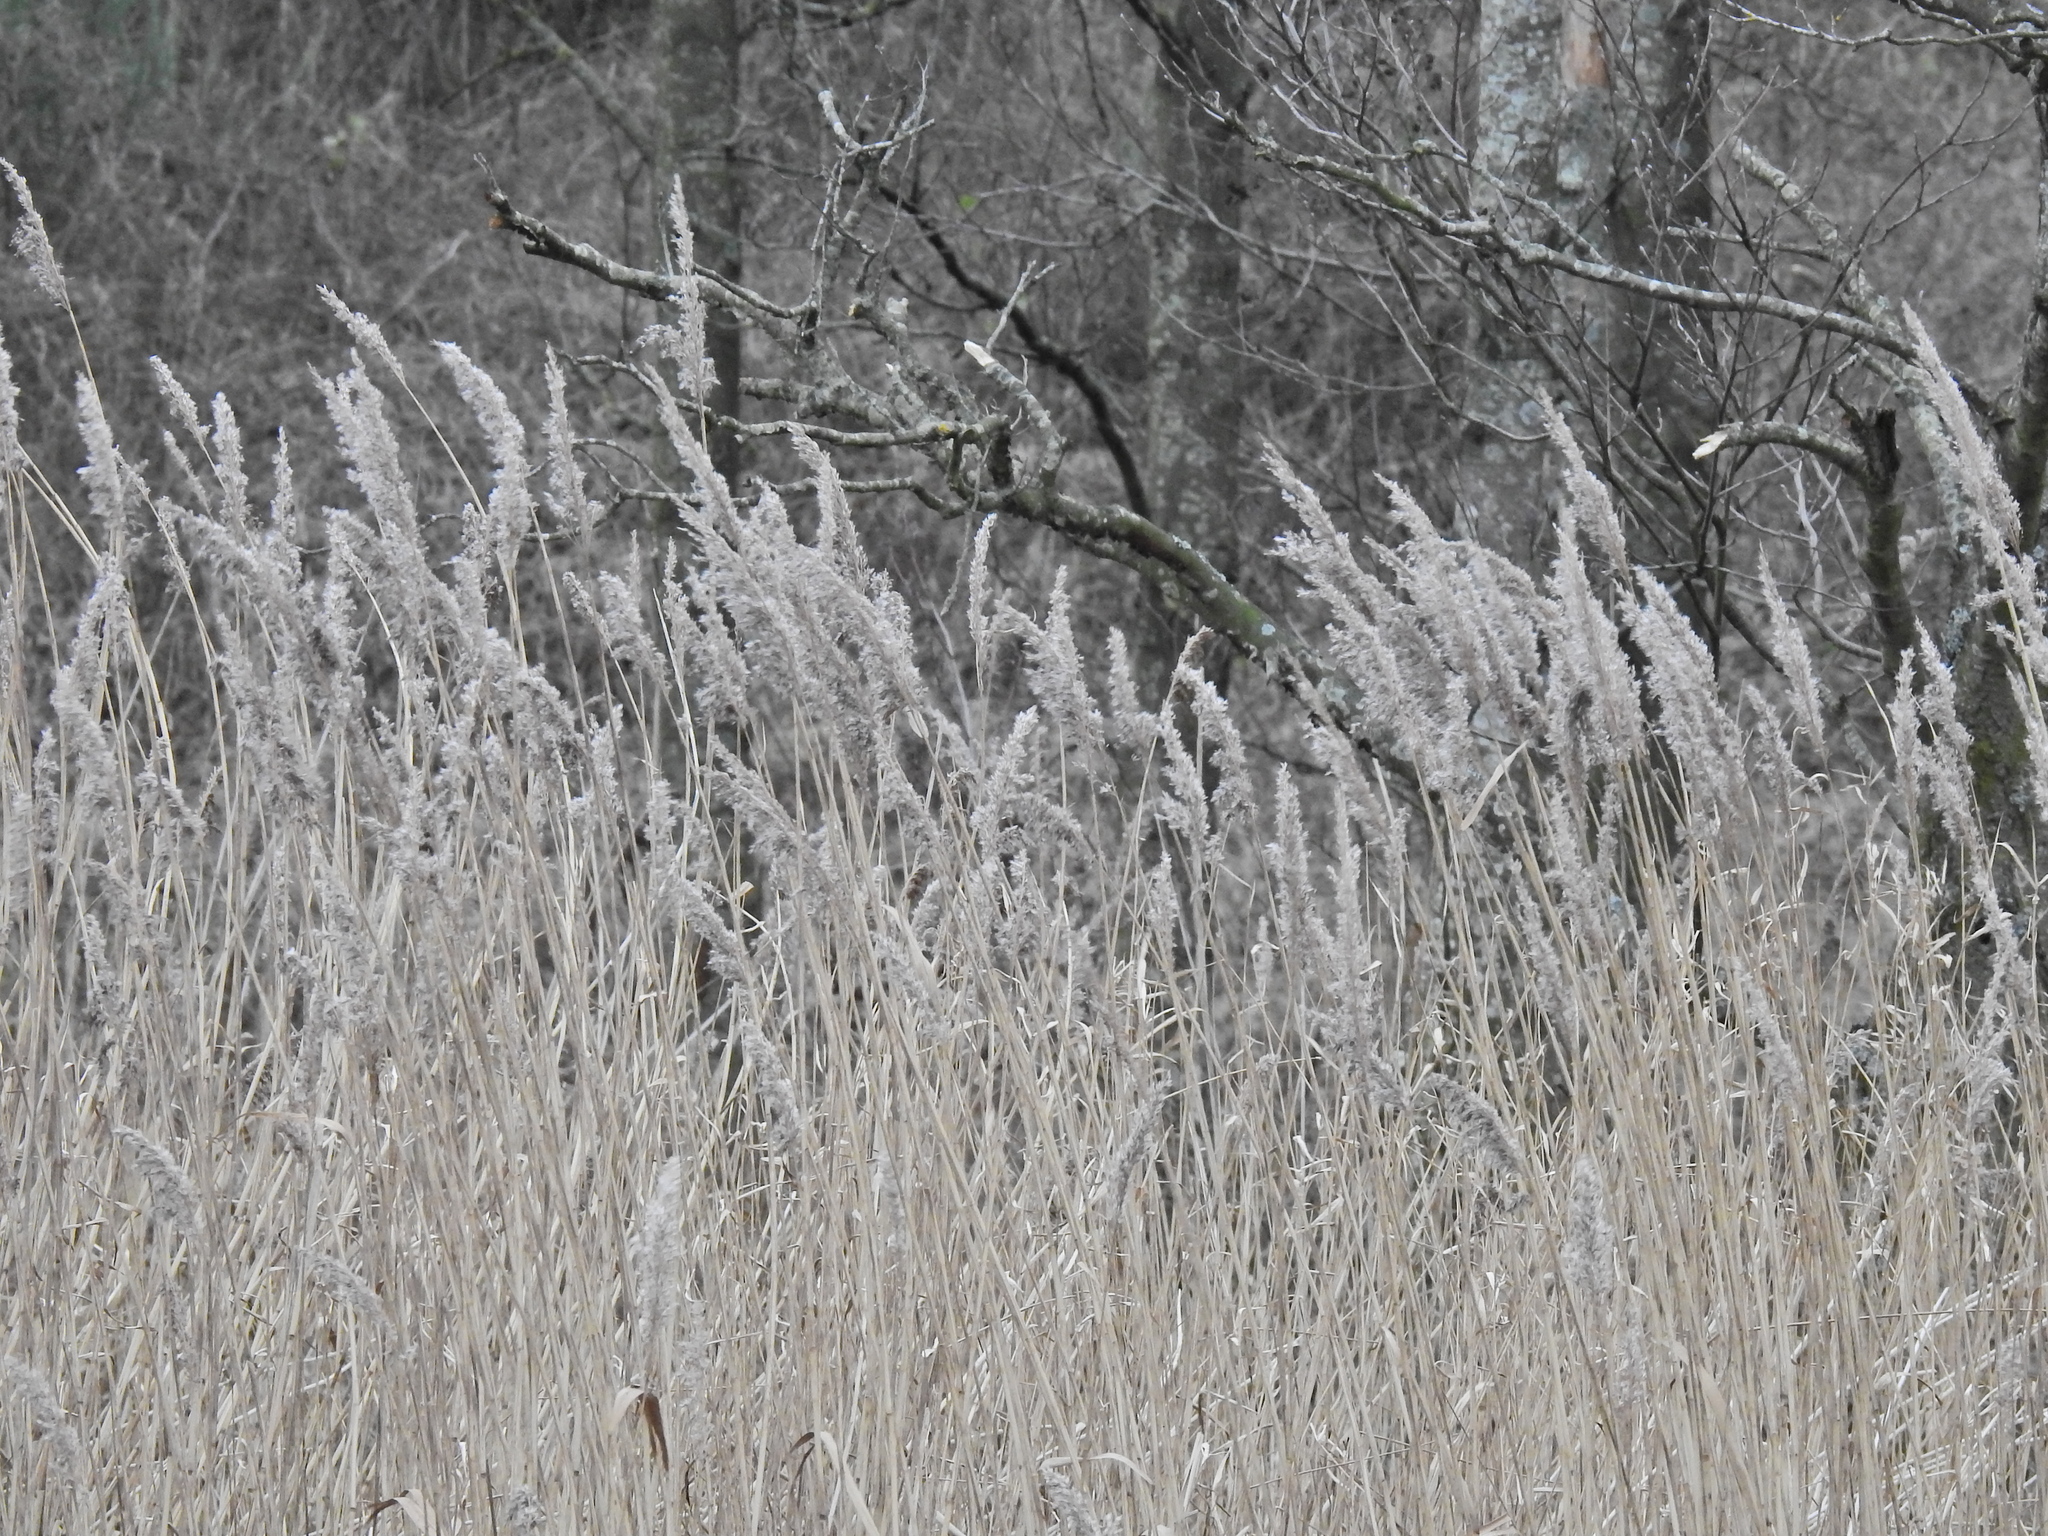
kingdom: Plantae
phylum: Tracheophyta
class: Liliopsida
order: Poales
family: Poaceae
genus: Phragmites
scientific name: Phragmites australis
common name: Common reed
